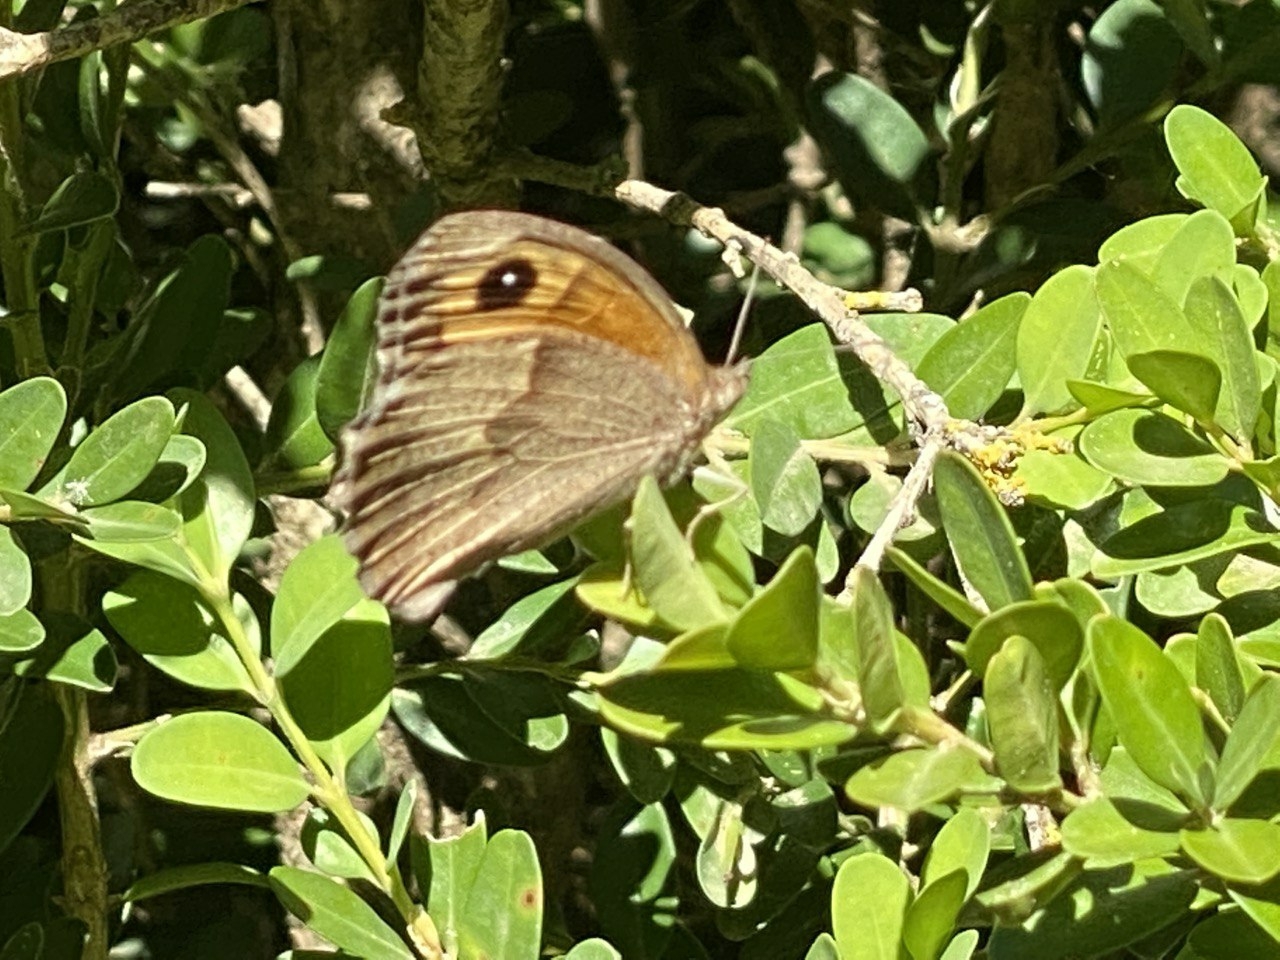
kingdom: Animalia
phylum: Arthropoda
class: Insecta
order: Lepidoptera
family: Nymphalidae
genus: Maniola
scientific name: Maniola jurtina
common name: Meadow brown
